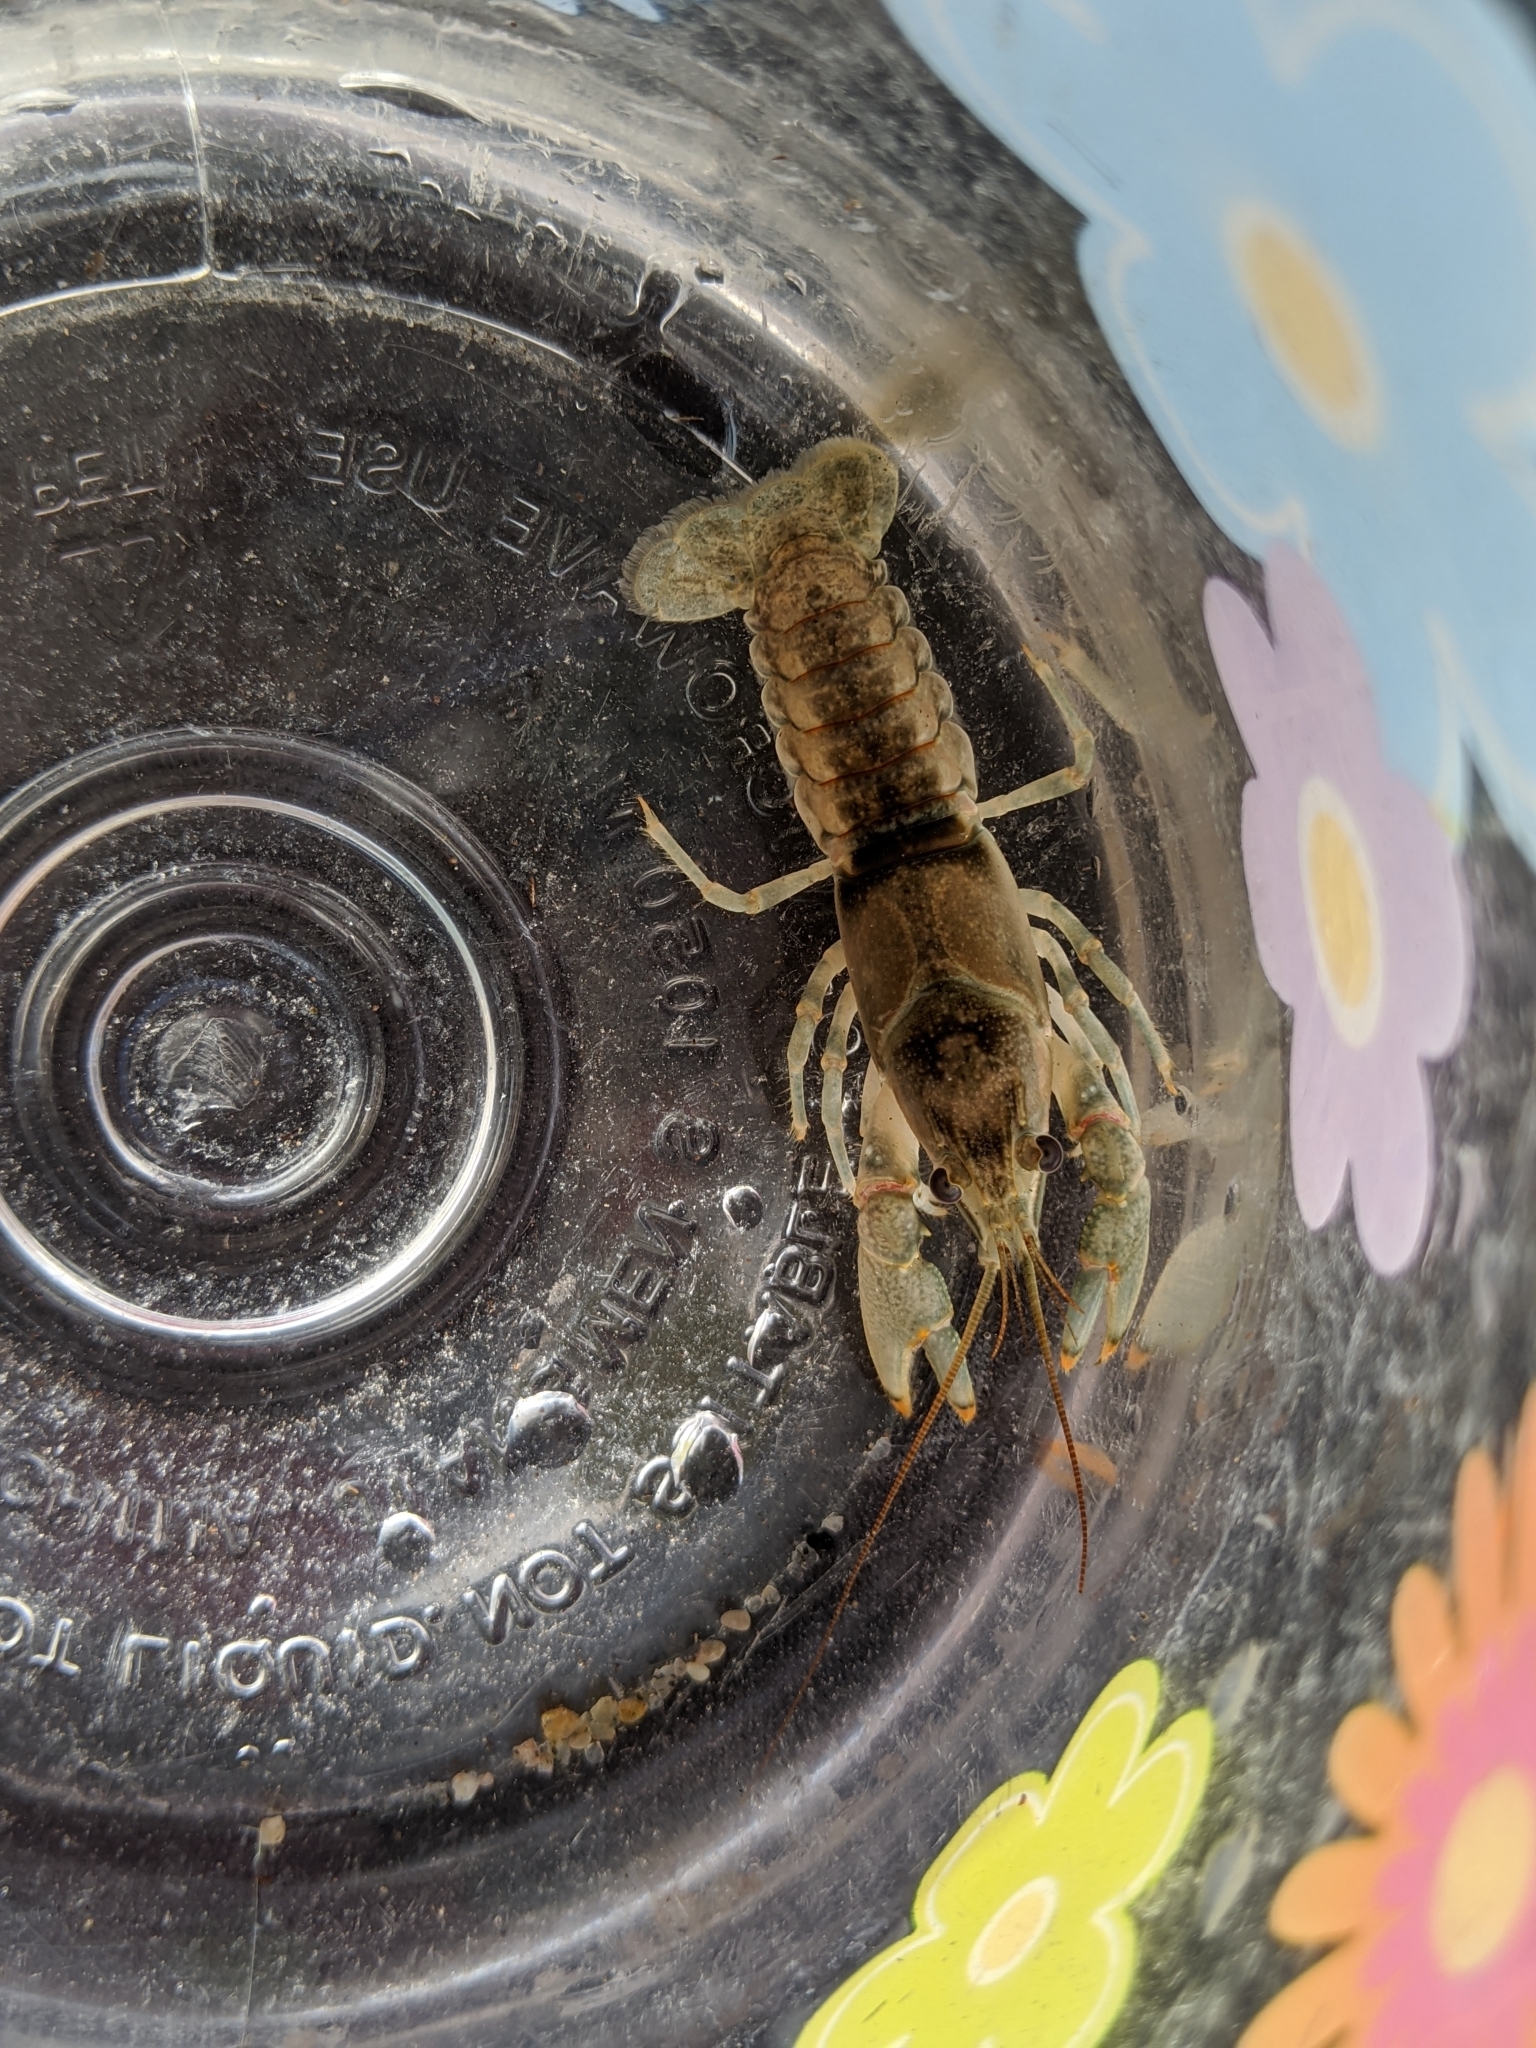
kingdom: Animalia
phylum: Arthropoda
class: Malacostraca
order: Decapoda
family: Cambaridae
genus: Faxonius
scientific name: Faxonius propinquus
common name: Northern clearwater crayfish
